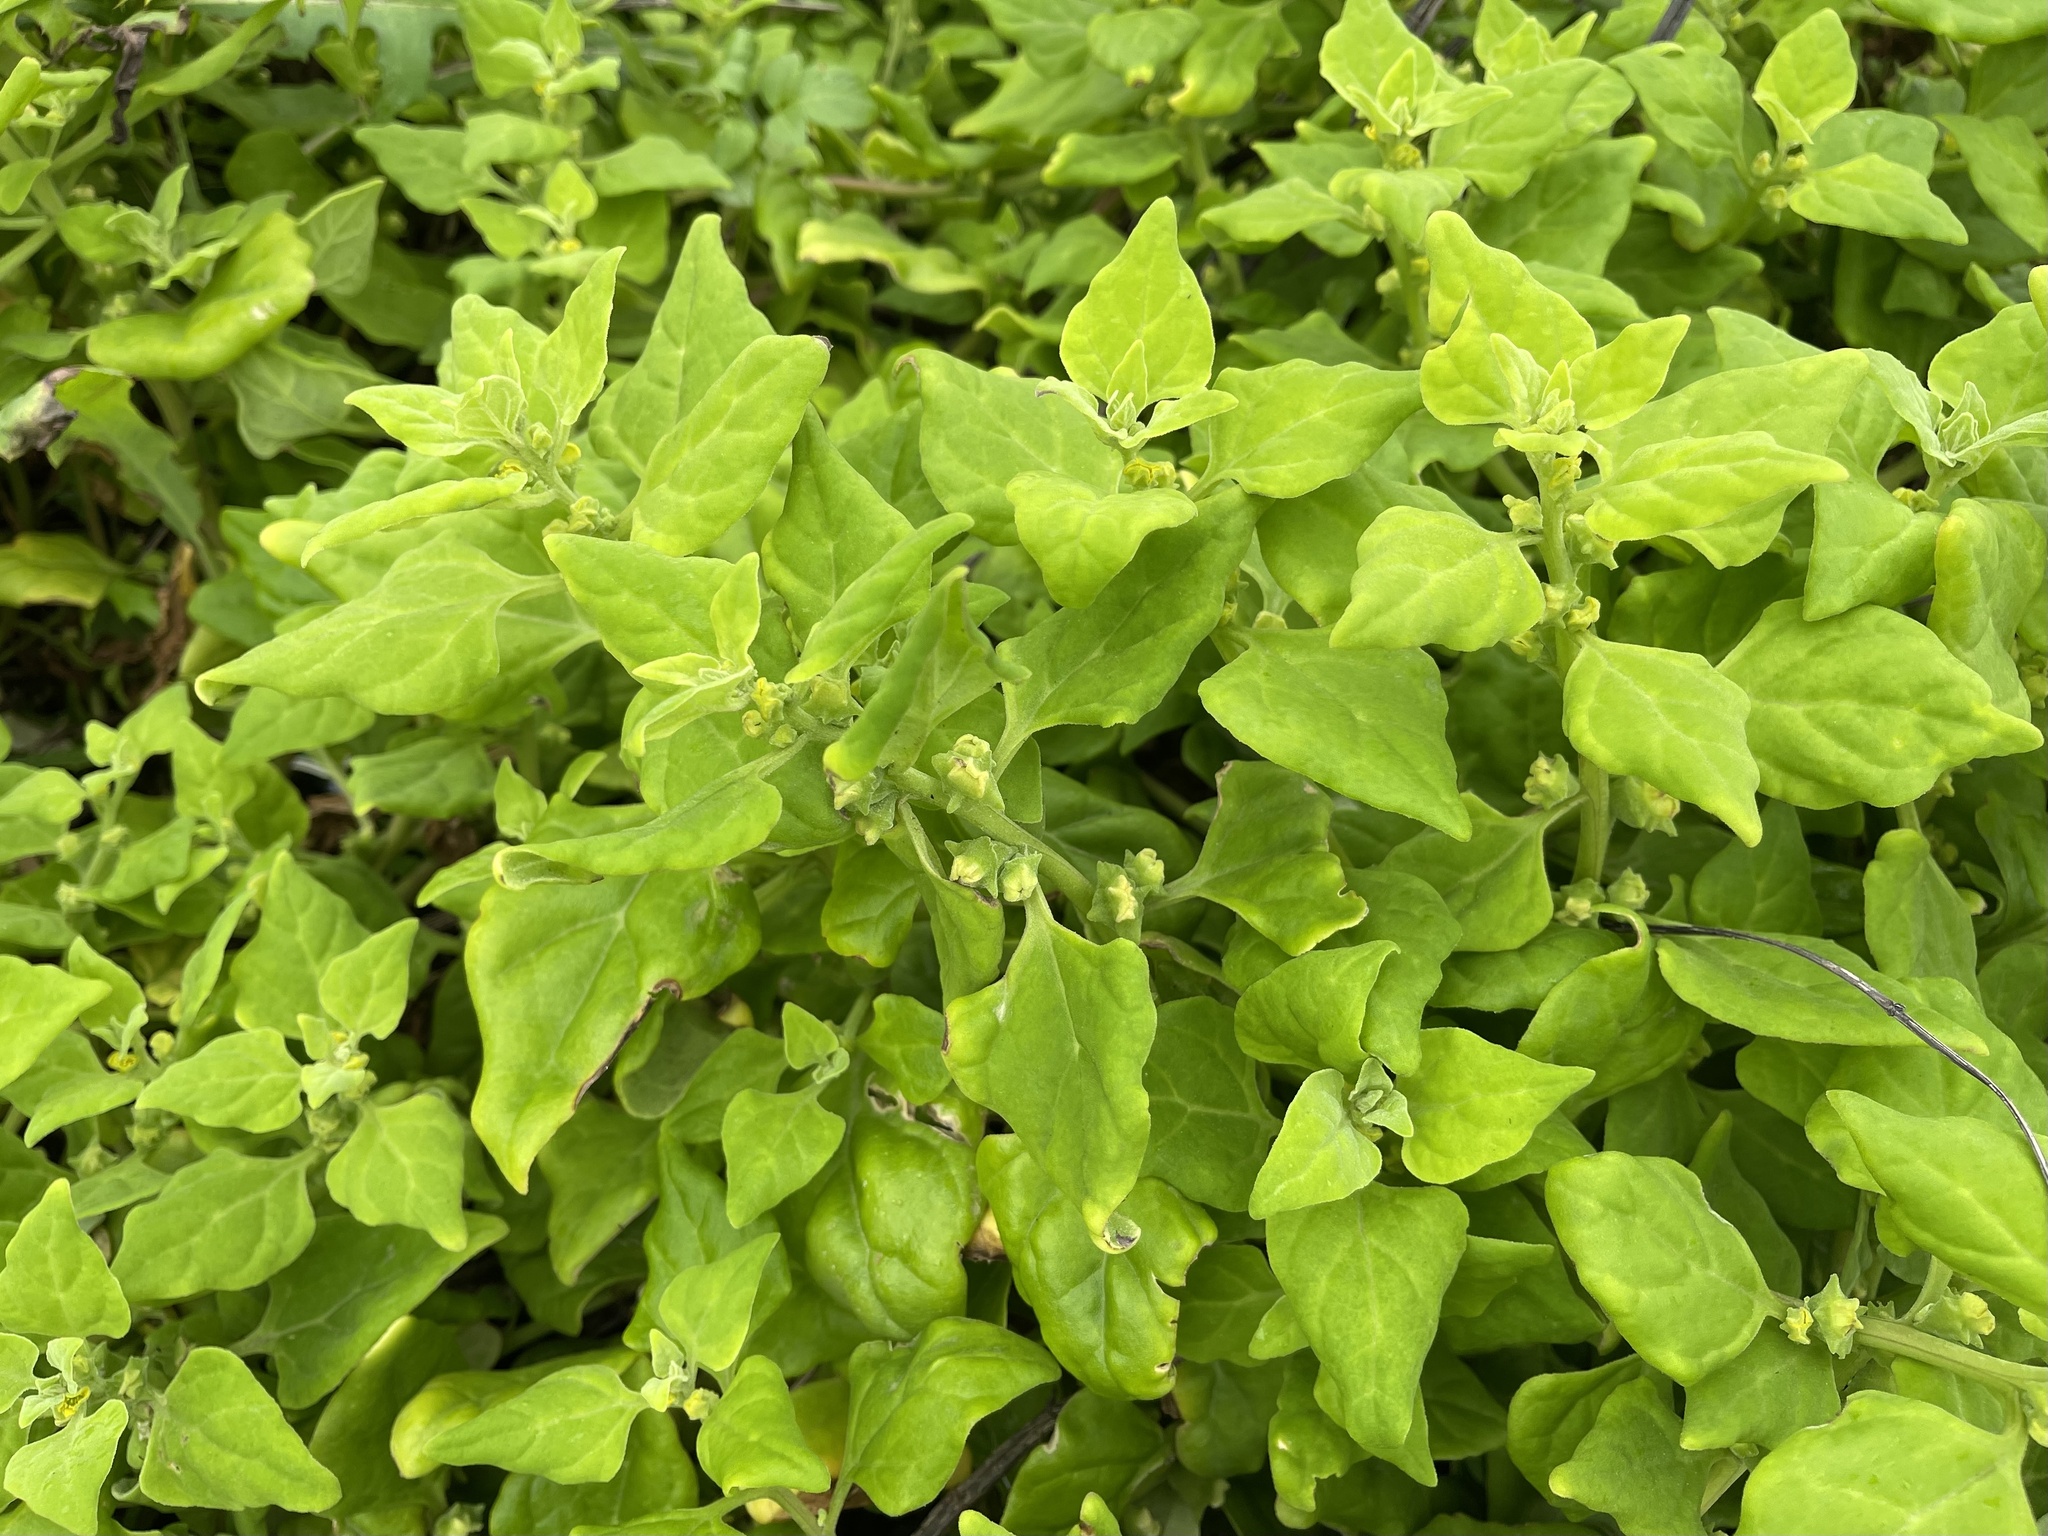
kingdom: Plantae
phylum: Tracheophyta
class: Magnoliopsida
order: Caryophyllales
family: Aizoaceae
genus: Tetragonia
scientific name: Tetragonia tetragonoides
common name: New zealand-spinach
